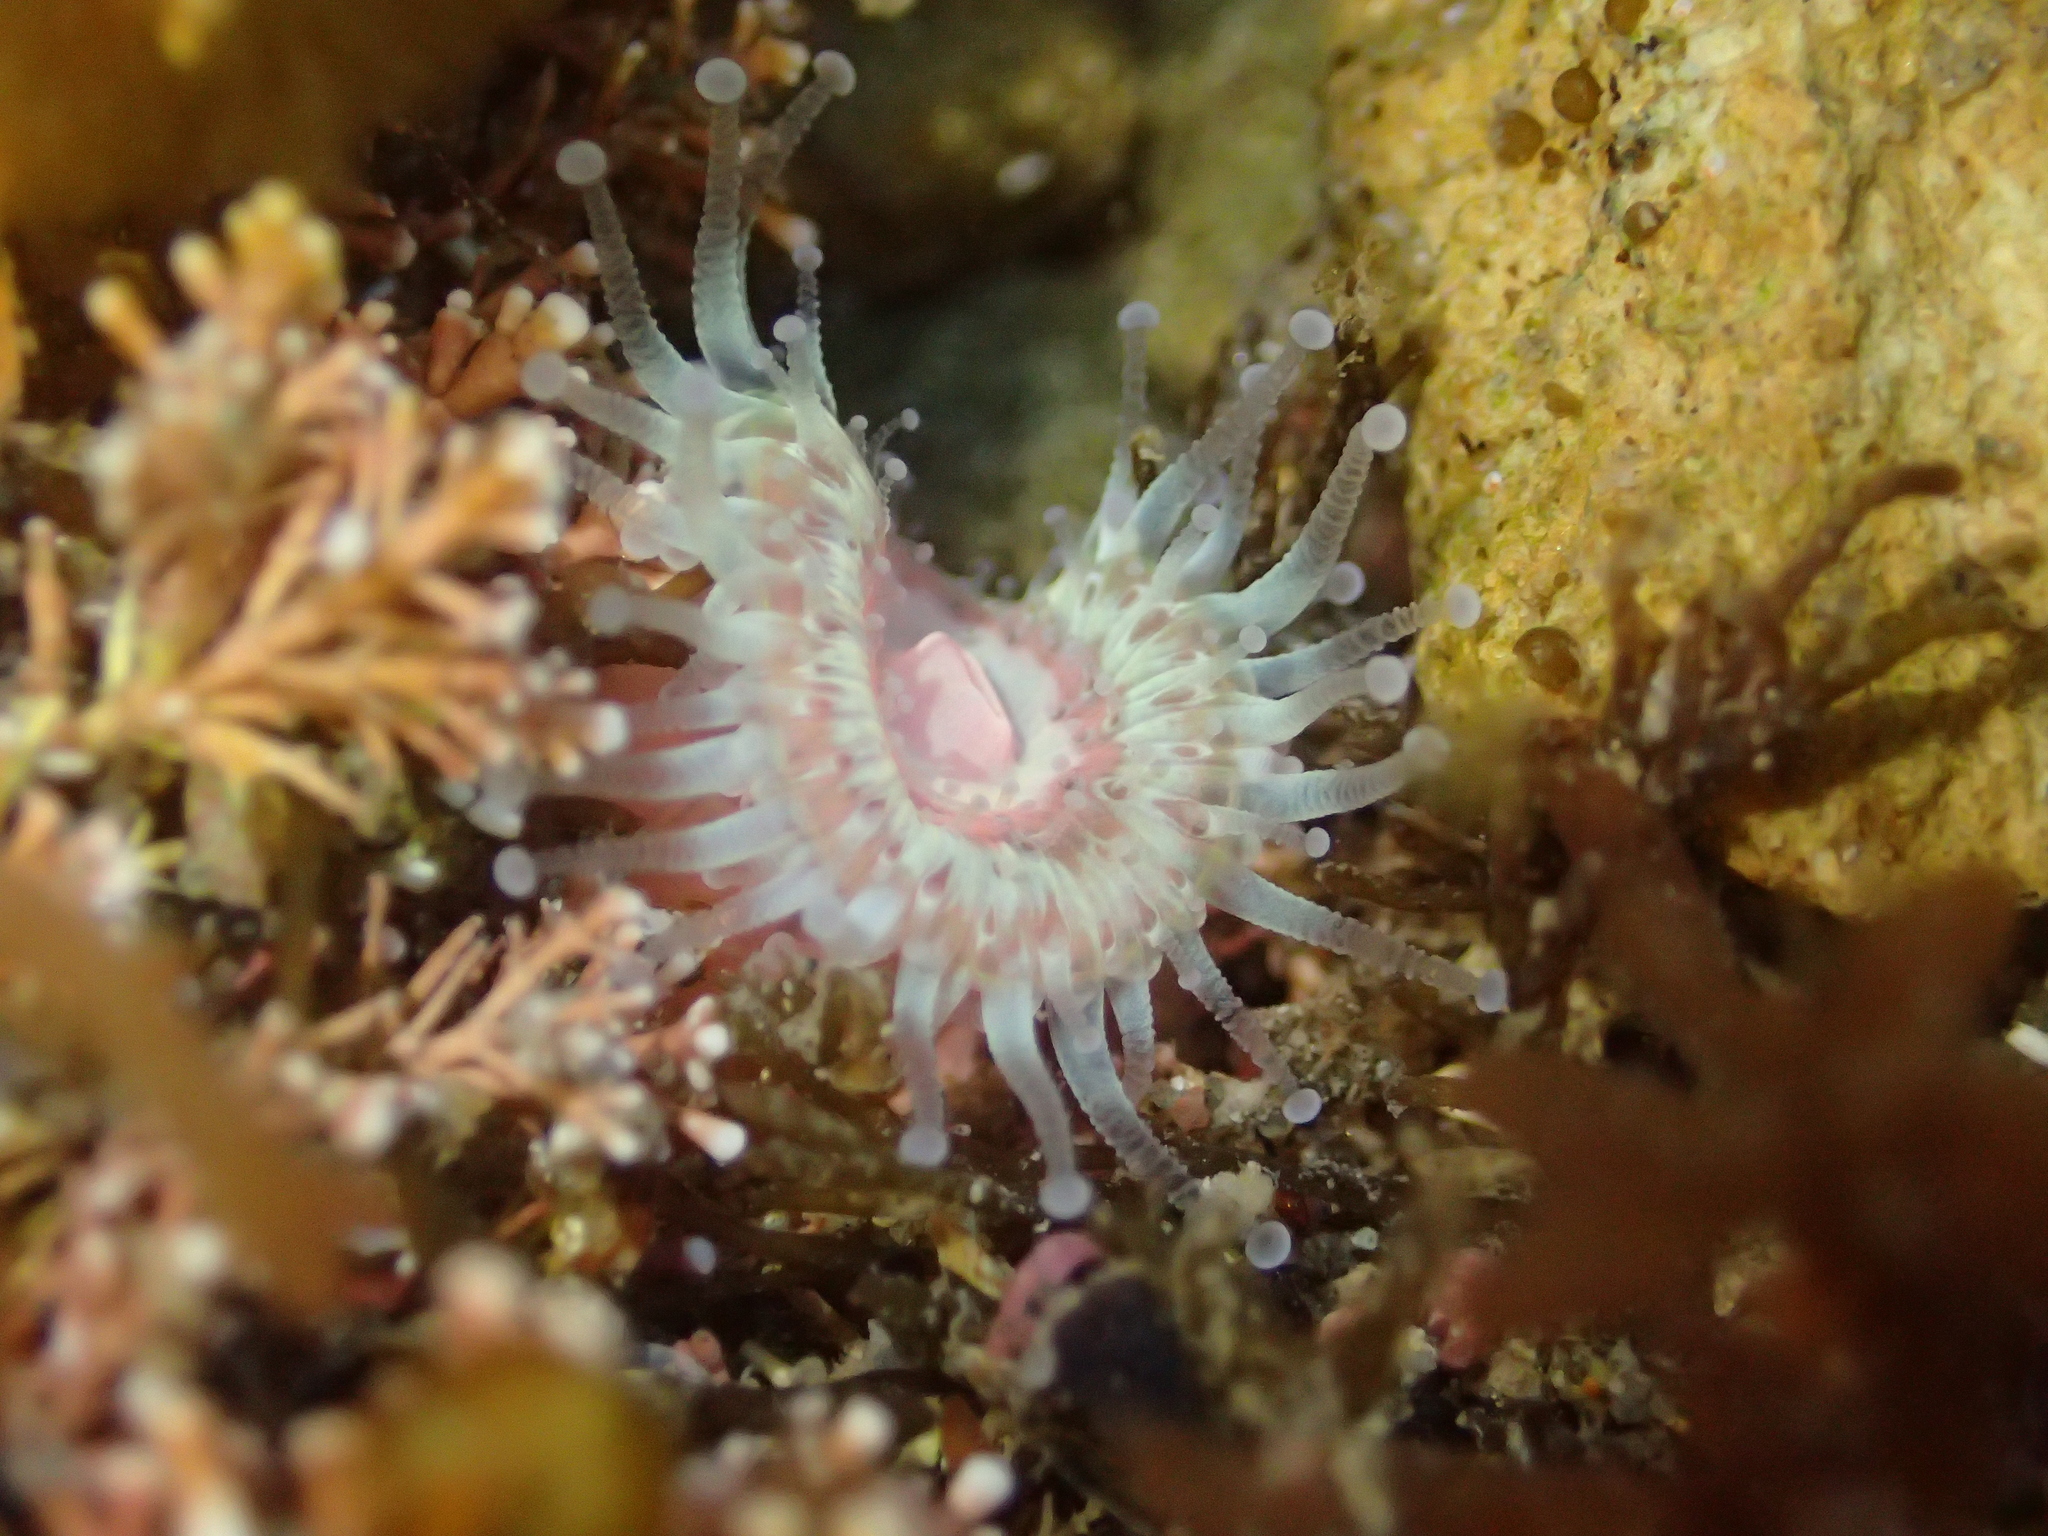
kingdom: Animalia
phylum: Cnidaria
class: Anthozoa
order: Corallimorpharia
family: Corallimorphidae
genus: Corynactis
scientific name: Corynactis australis
